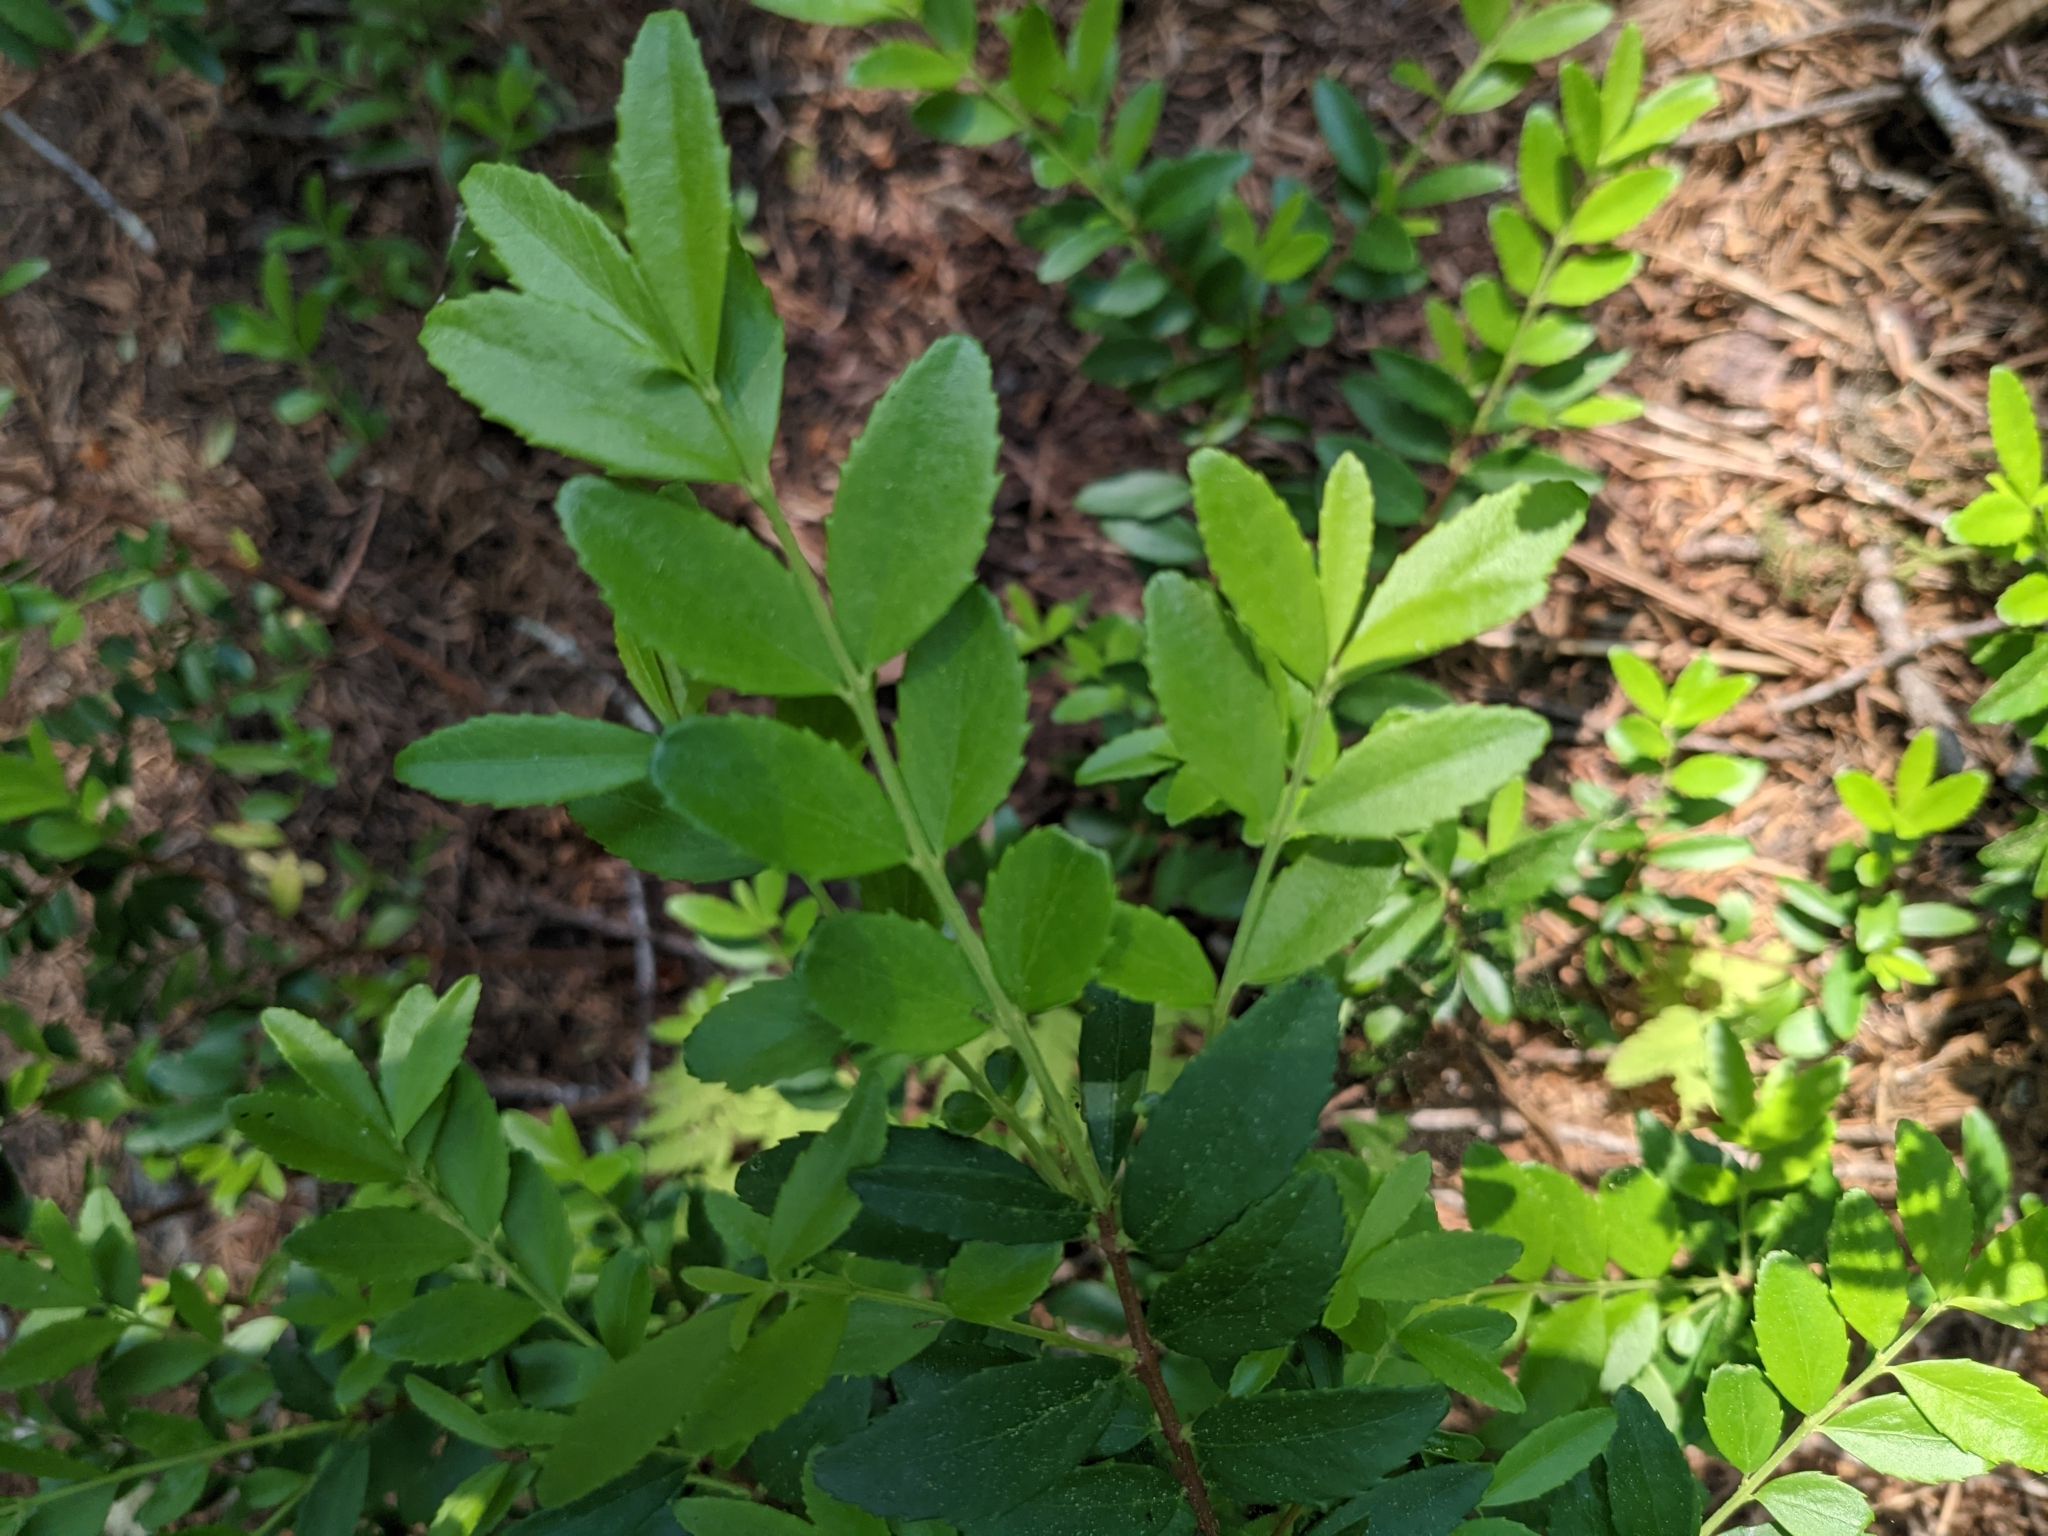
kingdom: Plantae
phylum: Tracheophyta
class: Magnoliopsida
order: Celastrales
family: Celastraceae
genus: Paxistima
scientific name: Paxistima myrsinites
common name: Mountain-lover
